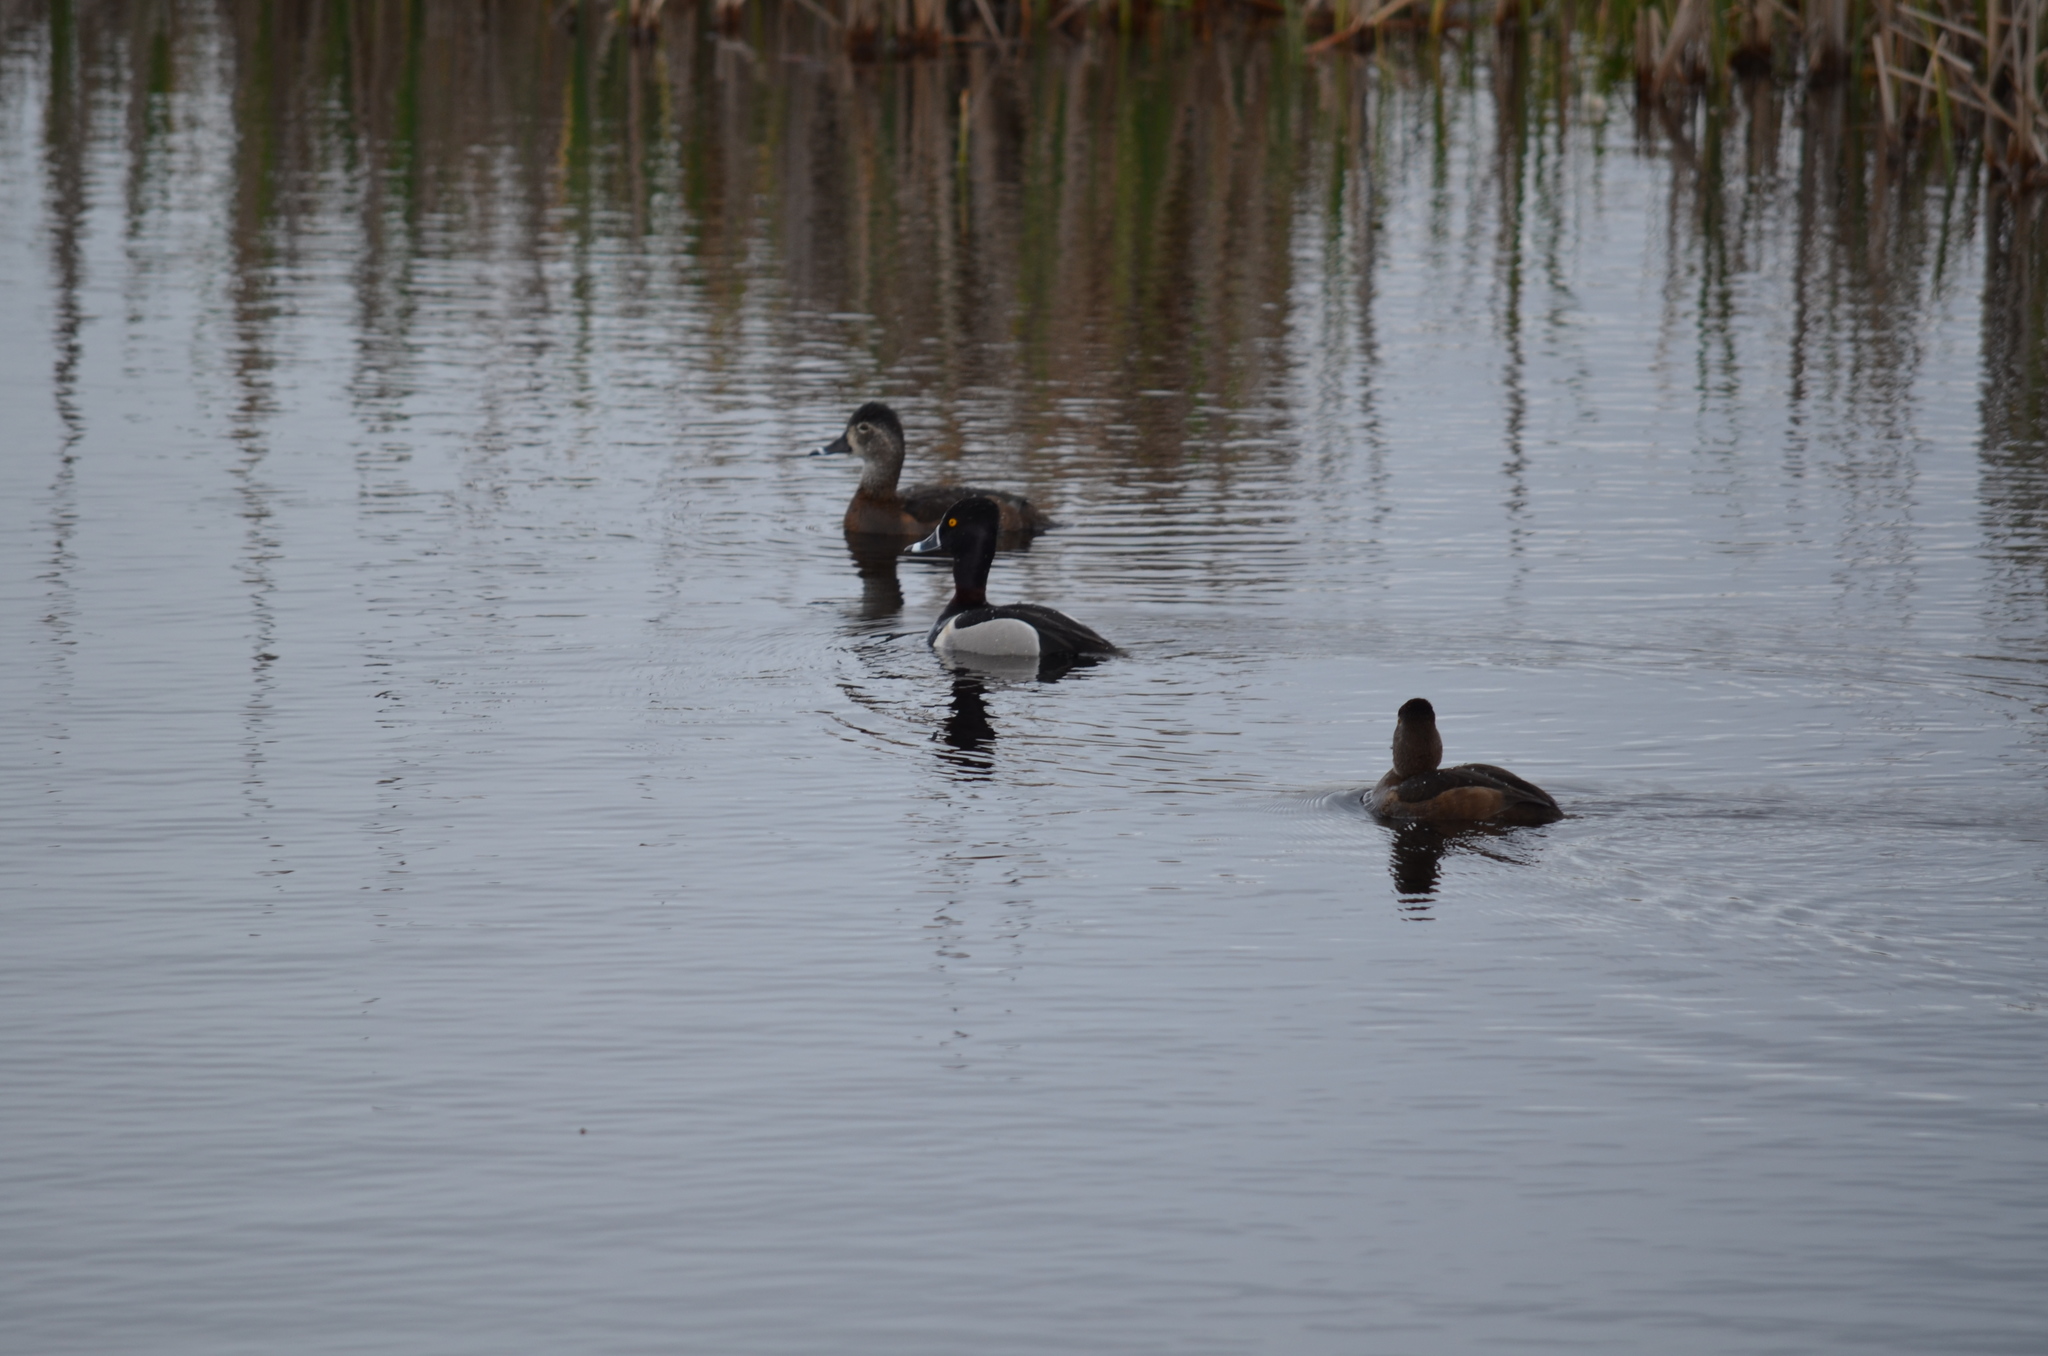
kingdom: Animalia
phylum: Chordata
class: Aves
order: Anseriformes
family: Anatidae
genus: Aythya
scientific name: Aythya collaris
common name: Ring-necked duck
